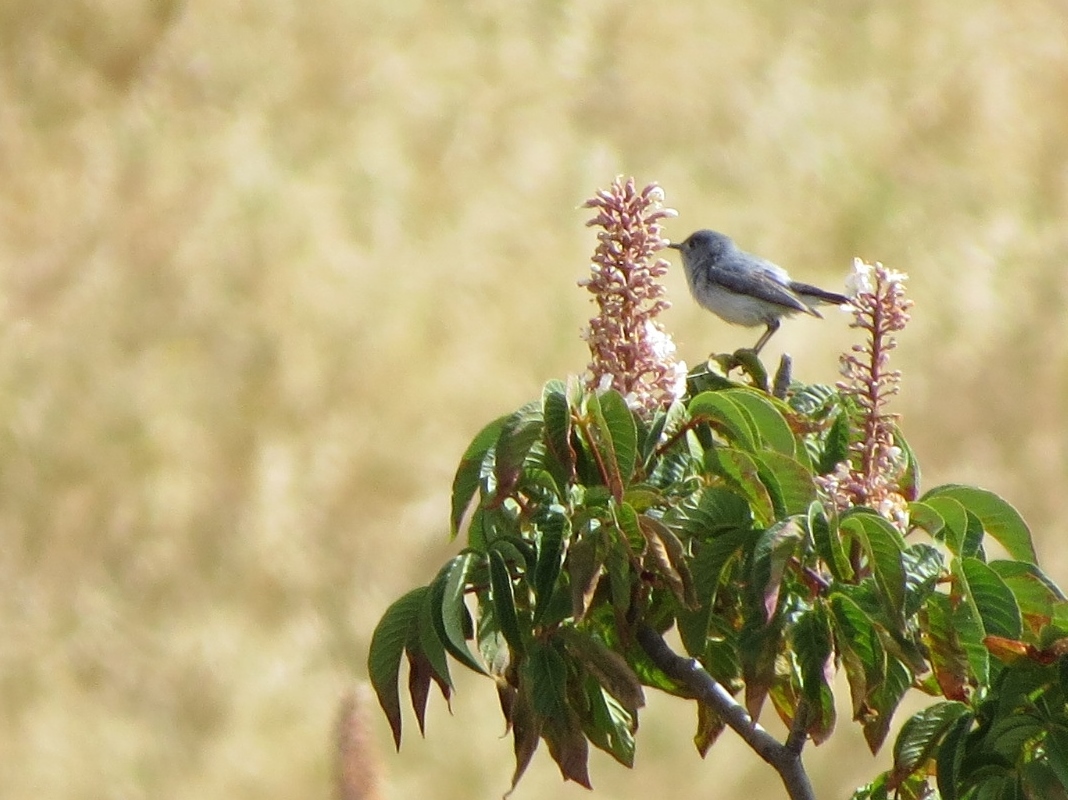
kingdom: Animalia
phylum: Chordata
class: Aves
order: Passeriformes
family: Polioptilidae
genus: Polioptila
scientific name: Polioptila caerulea
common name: Blue-gray gnatcatcher
